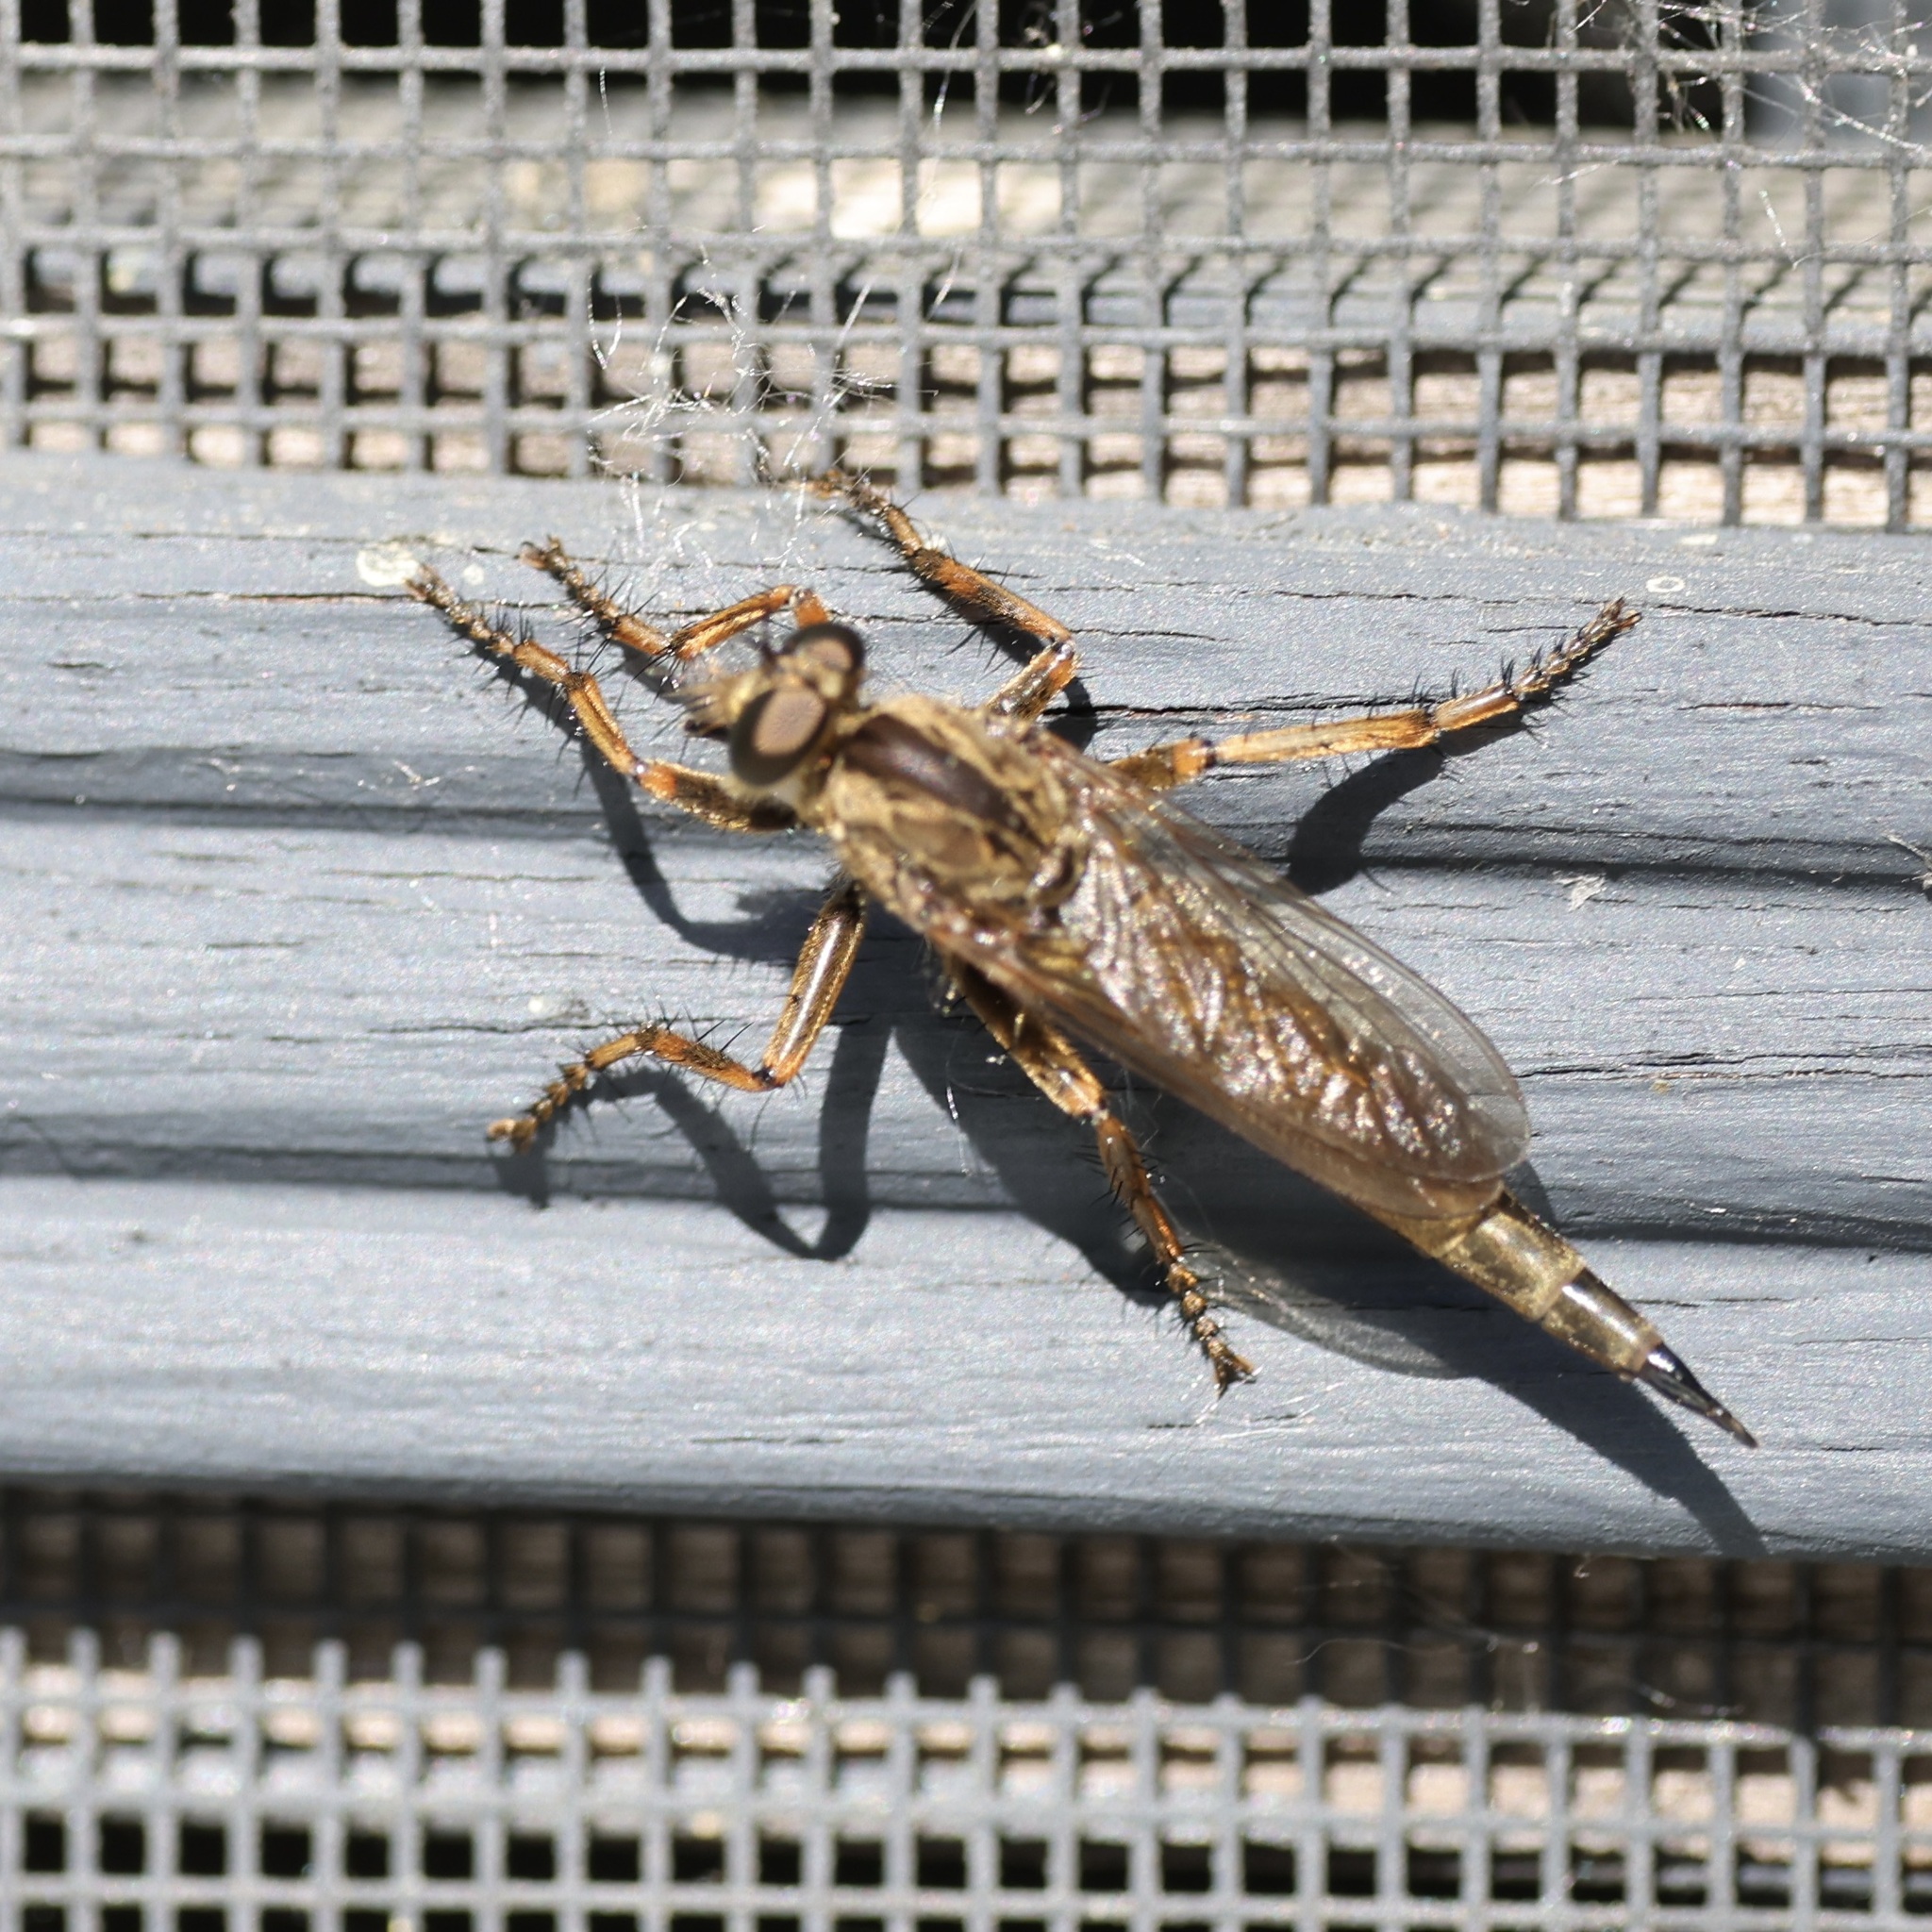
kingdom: Animalia
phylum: Arthropoda
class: Insecta
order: Diptera
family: Asilidae
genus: Machimus
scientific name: Machimus snowii
